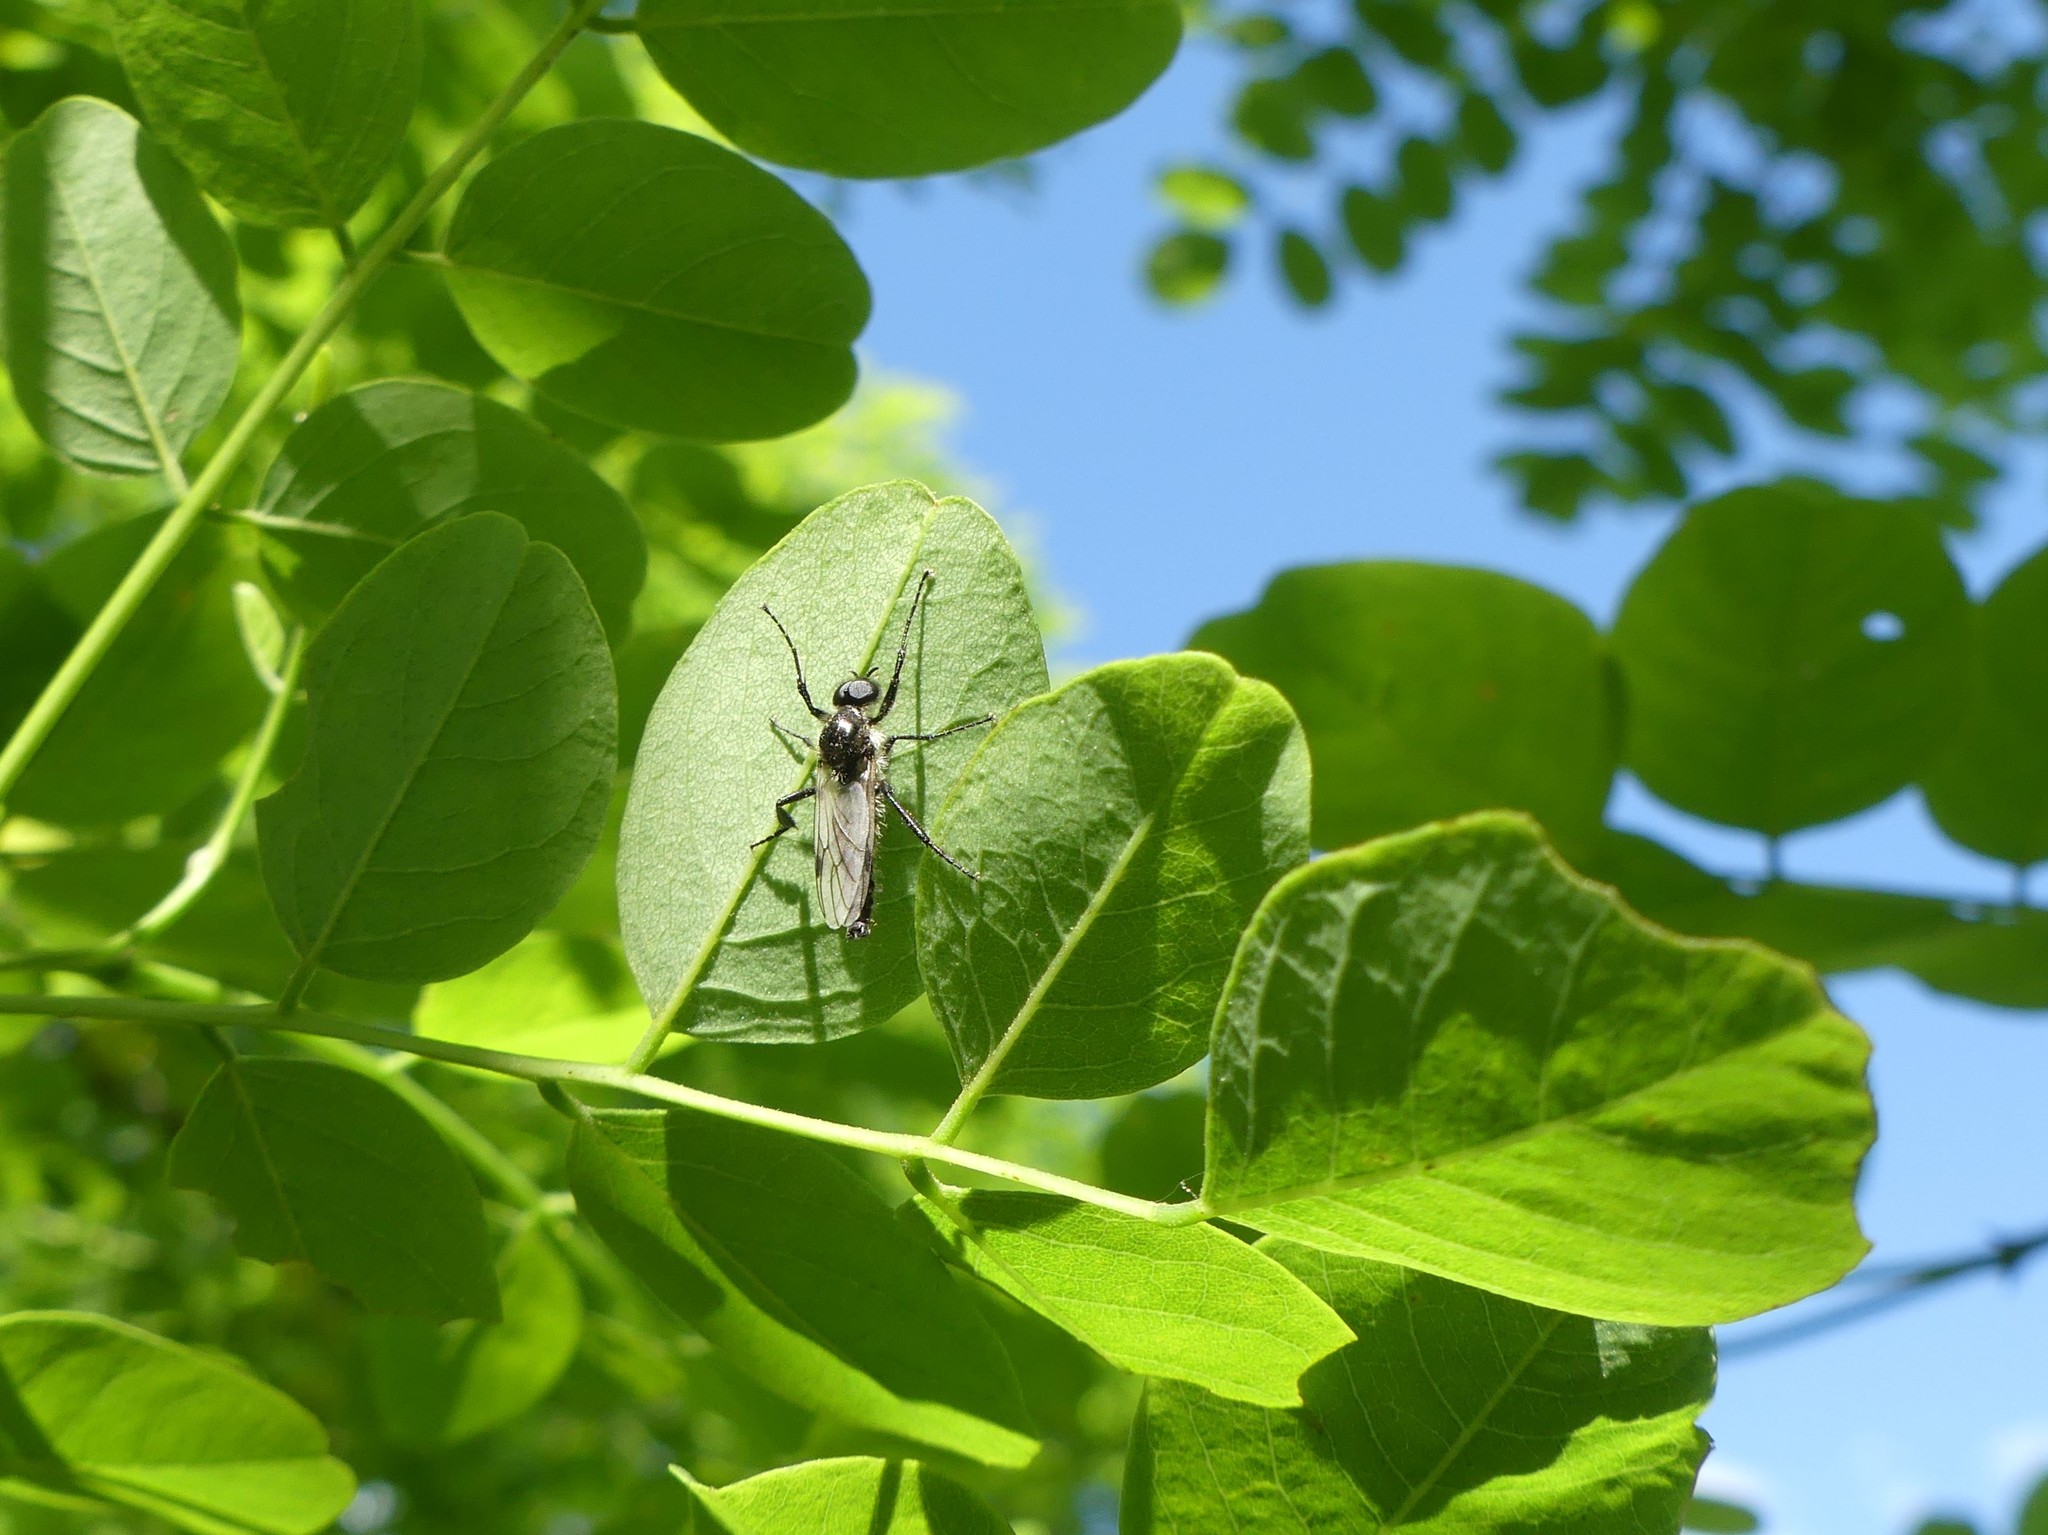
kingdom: Animalia
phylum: Arthropoda
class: Insecta
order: Diptera
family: Bibionidae
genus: Bibio
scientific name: Bibio albipennis
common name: White-winged march fly
